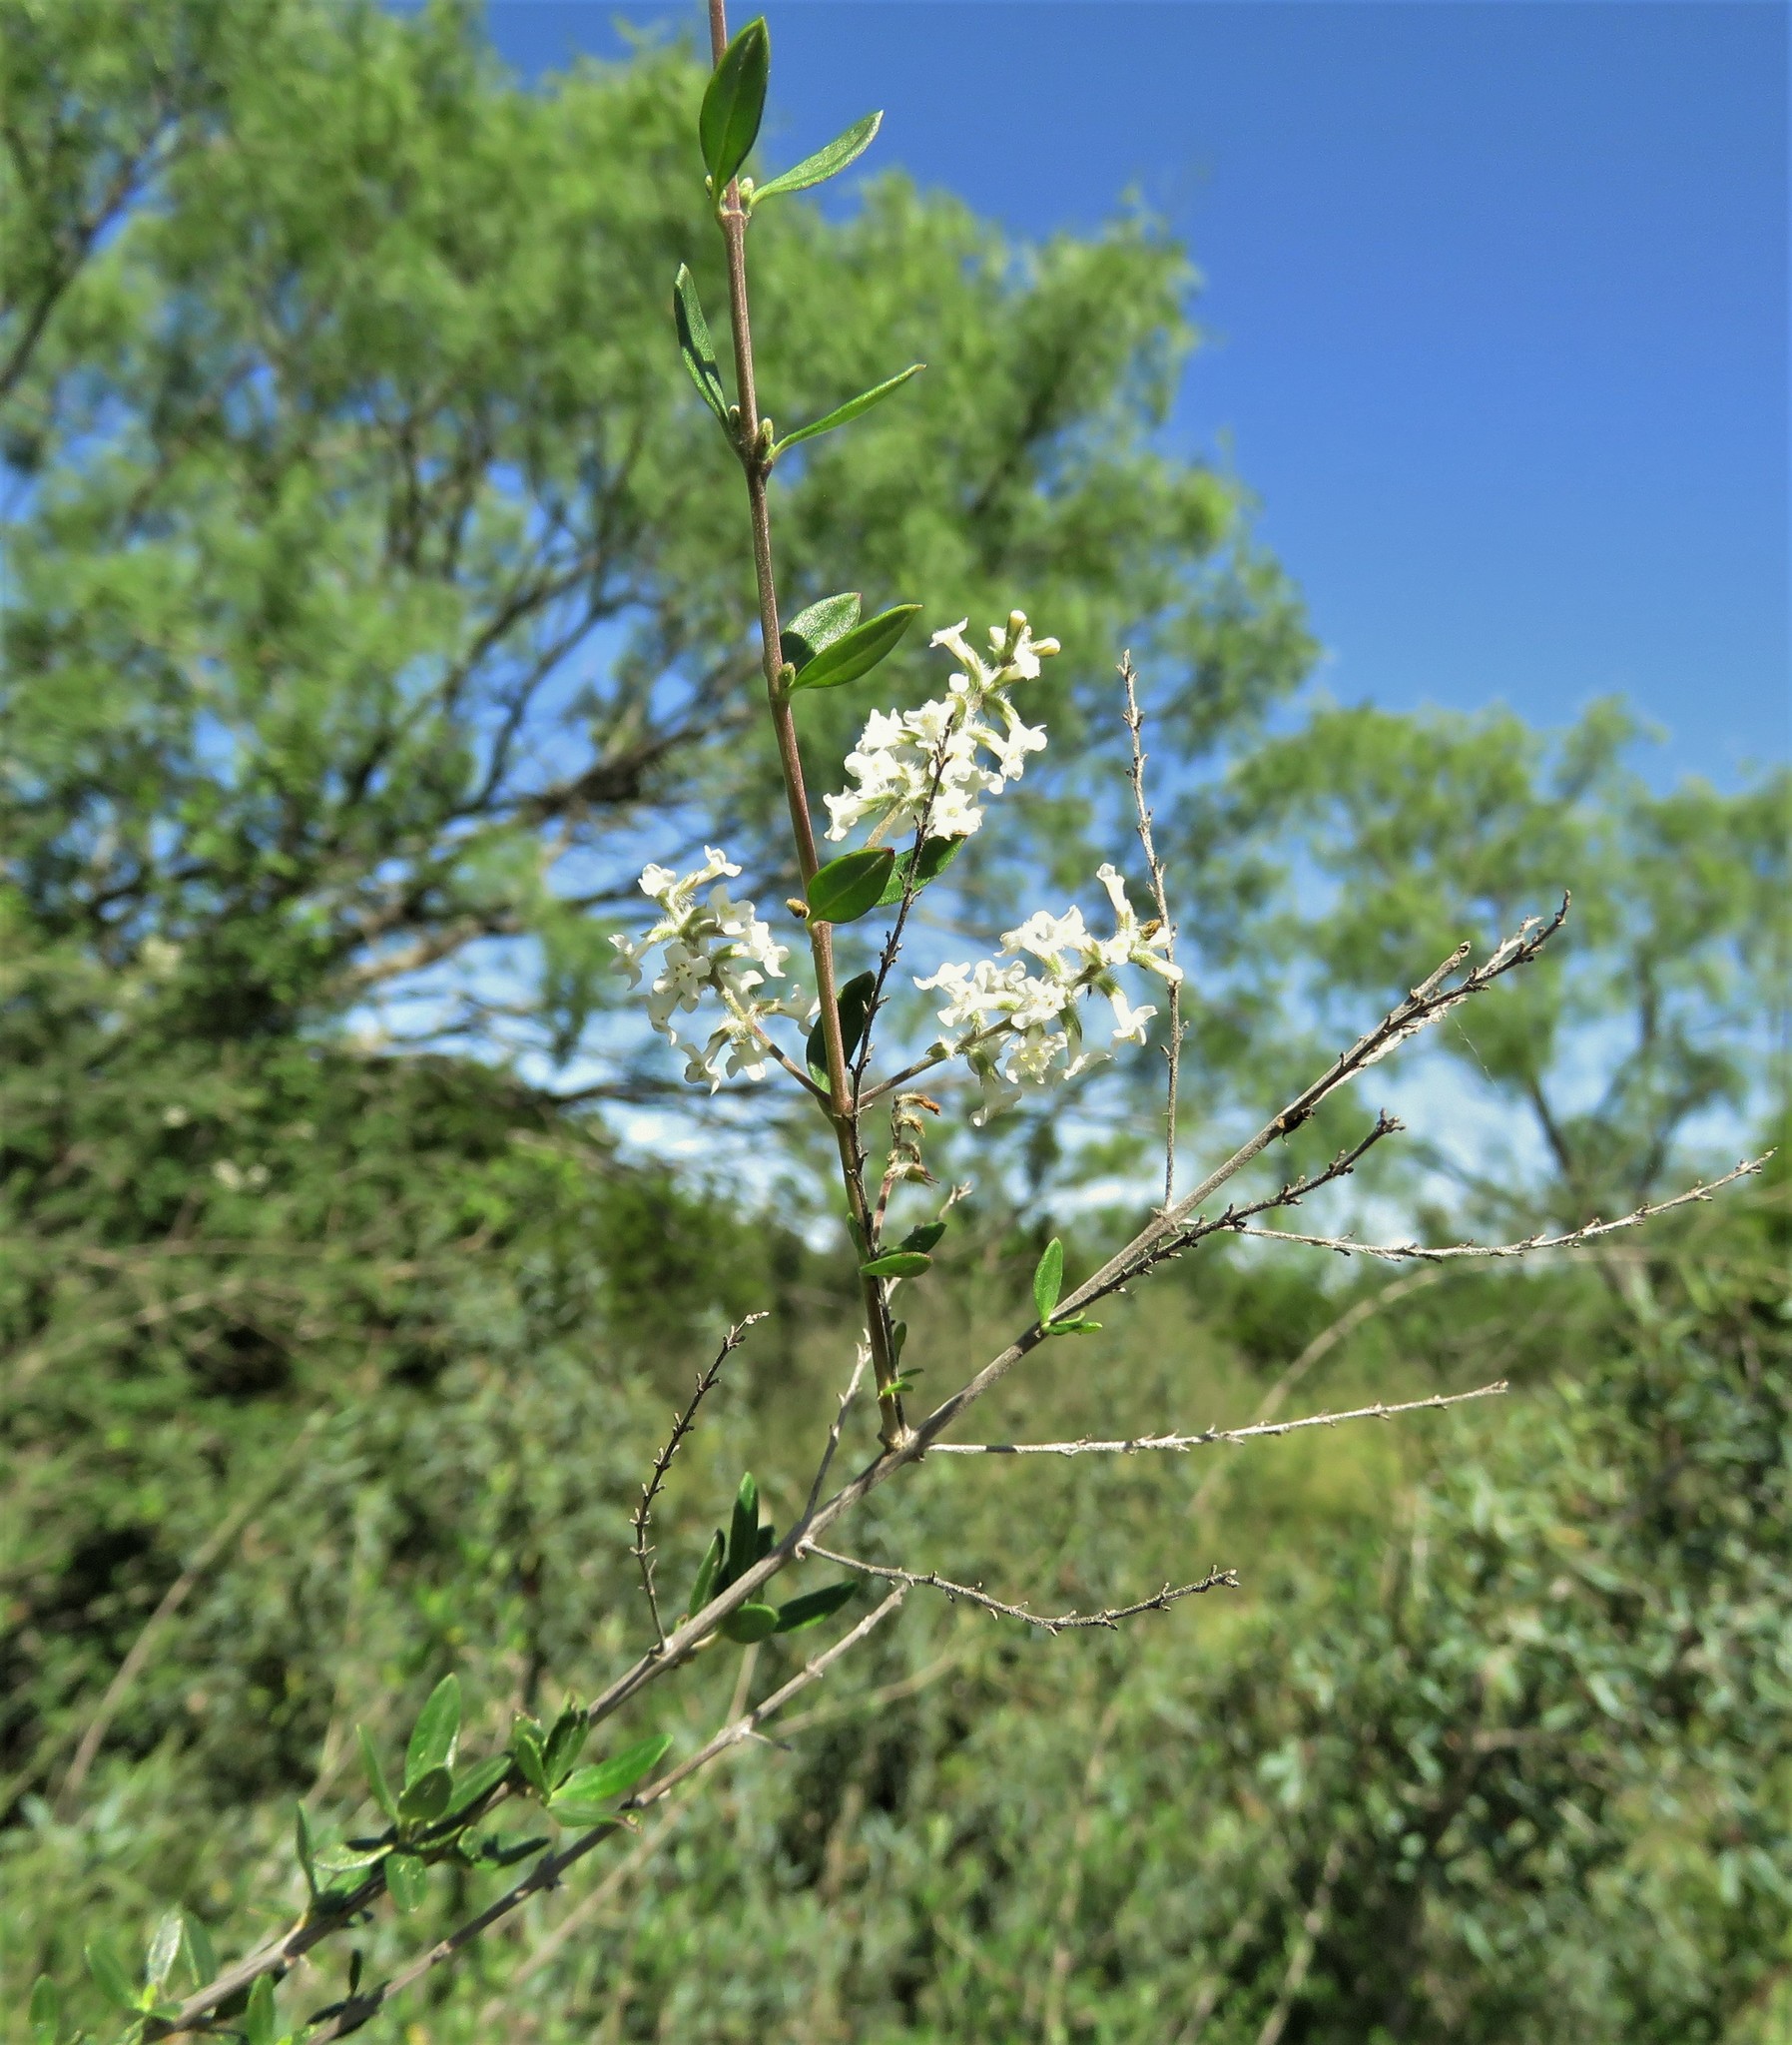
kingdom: Plantae
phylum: Tracheophyta
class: Magnoliopsida
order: Lamiales
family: Verbenaceae
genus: Aloysia
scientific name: Aloysia gratissima
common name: Common bee-brush
